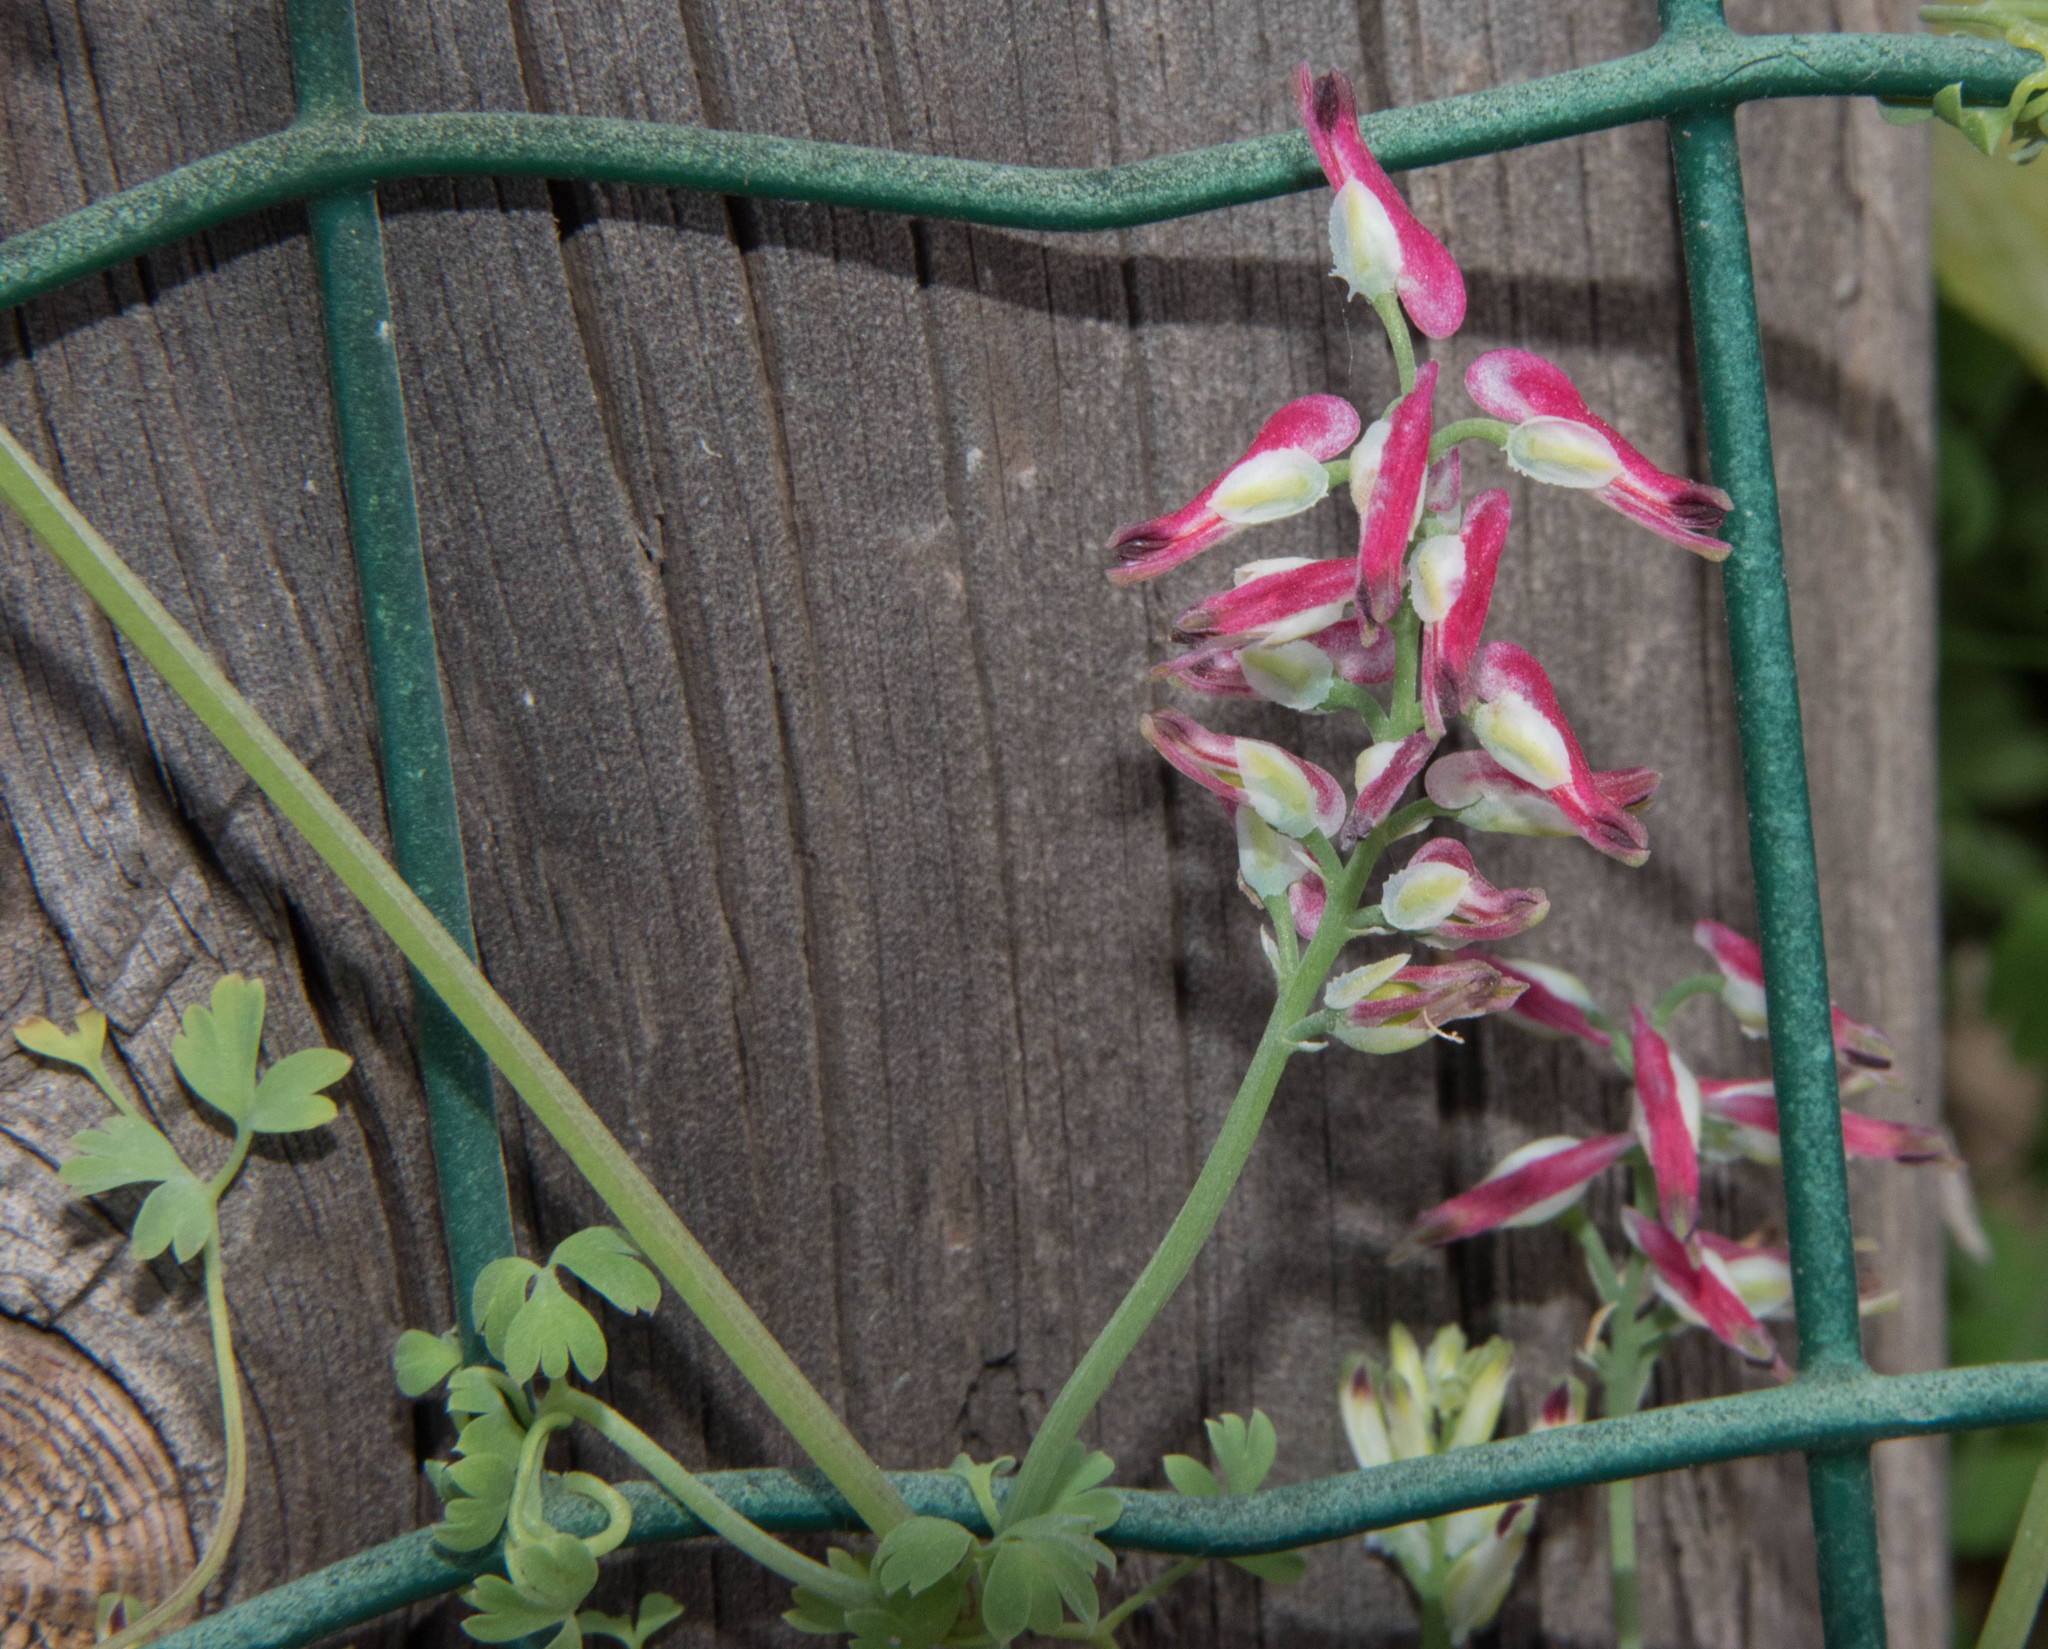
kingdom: Plantae
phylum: Tracheophyta
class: Magnoliopsida
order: Ranunculales
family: Papaveraceae
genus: Fumaria
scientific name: Fumaria capreolata
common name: White ramping-fumitory
